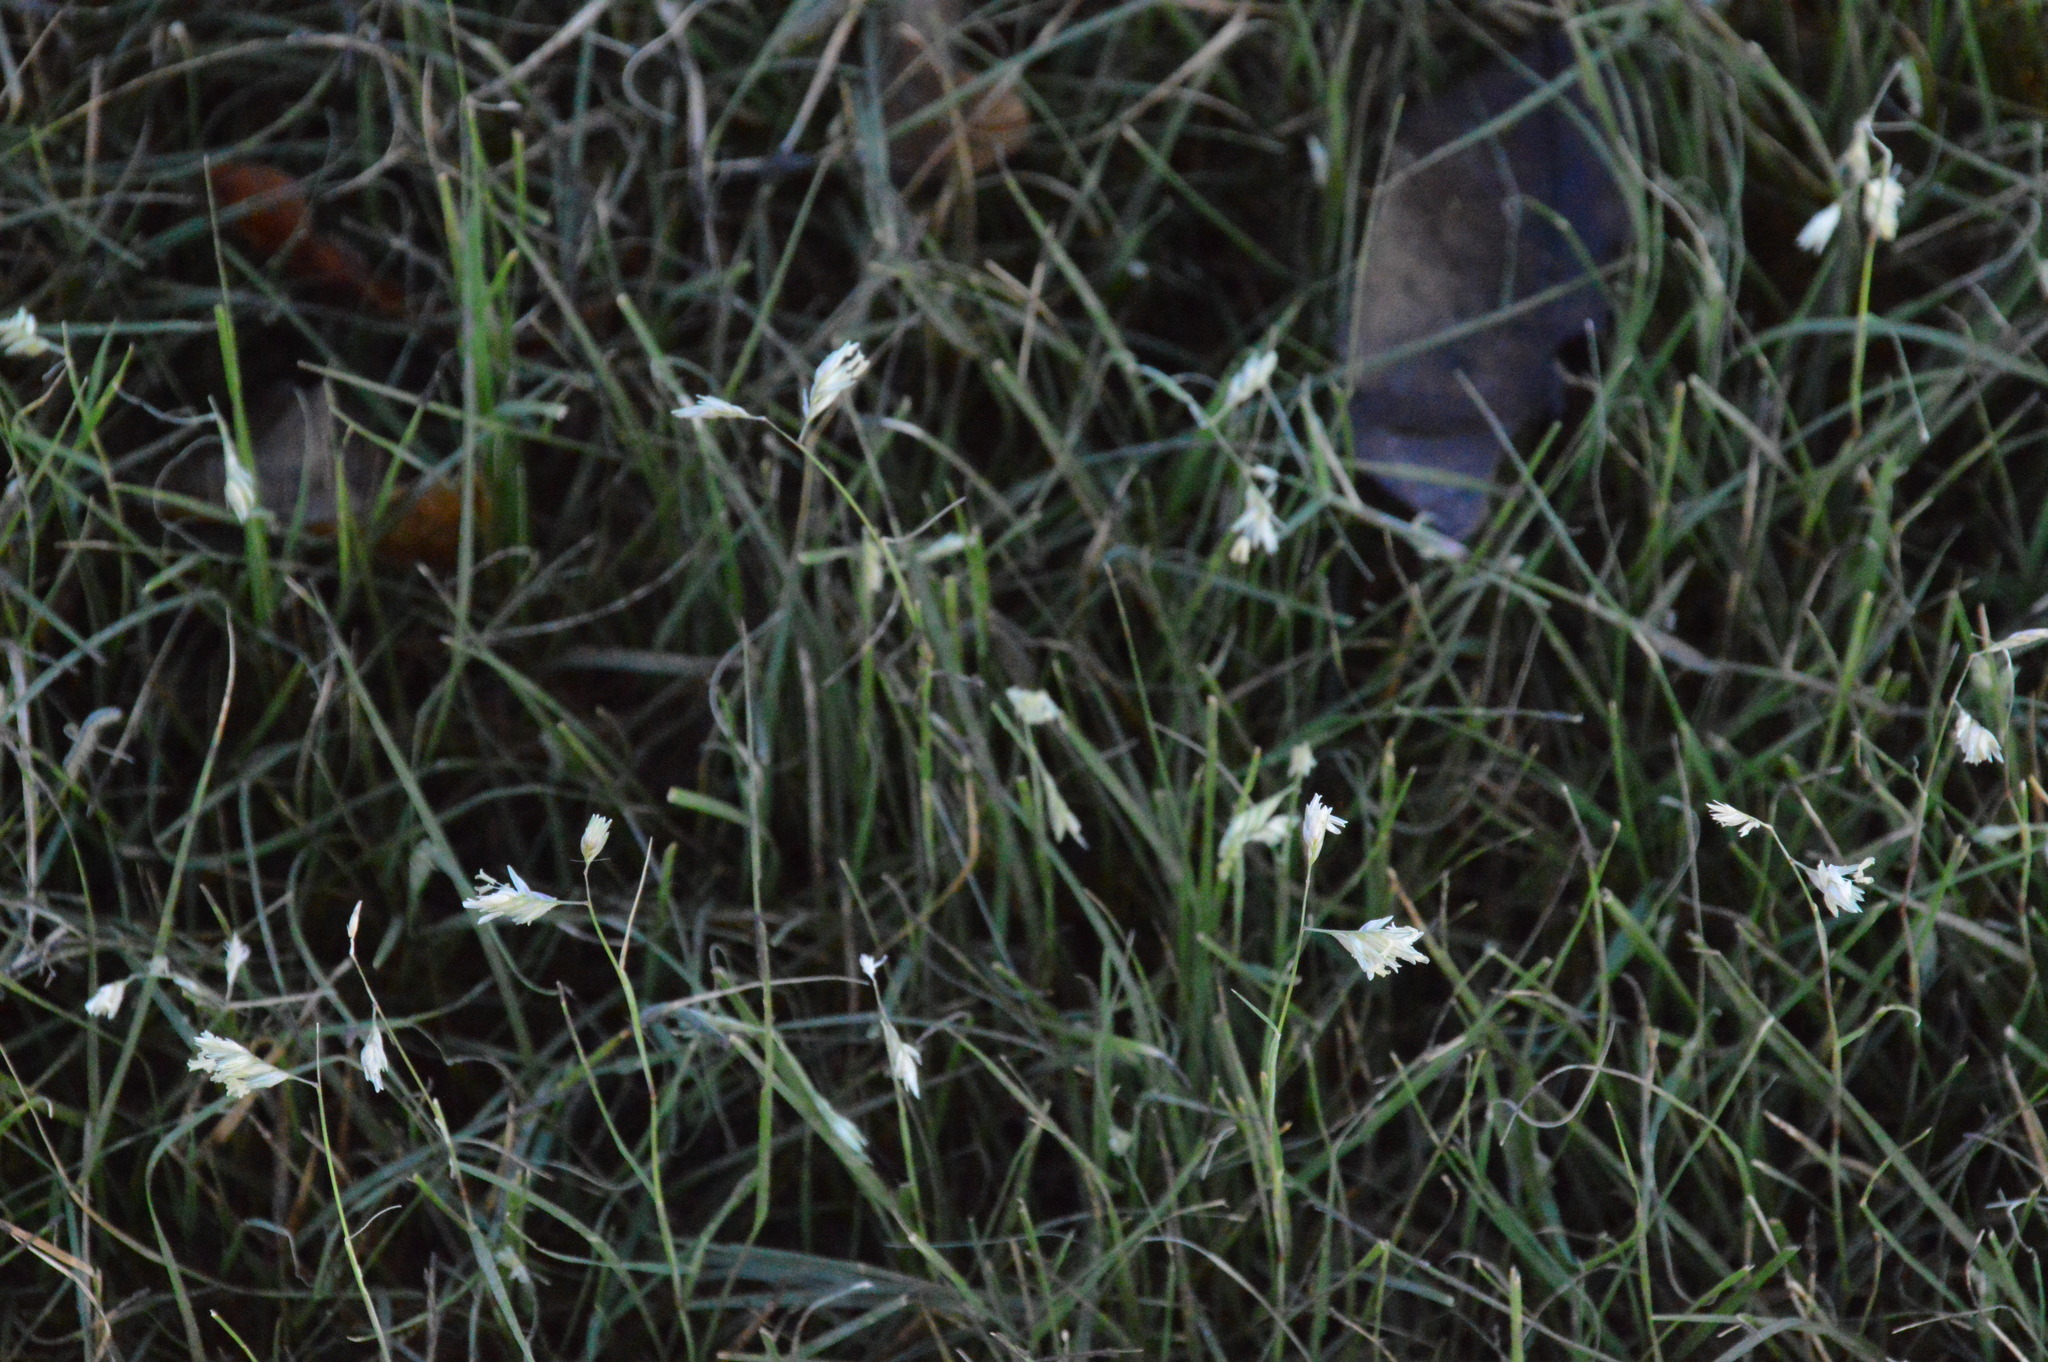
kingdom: Plantae
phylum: Tracheophyta
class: Liliopsida
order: Poales
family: Poaceae
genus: Bouteloua
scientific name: Bouteloua dactyloides
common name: Buffalo grass
